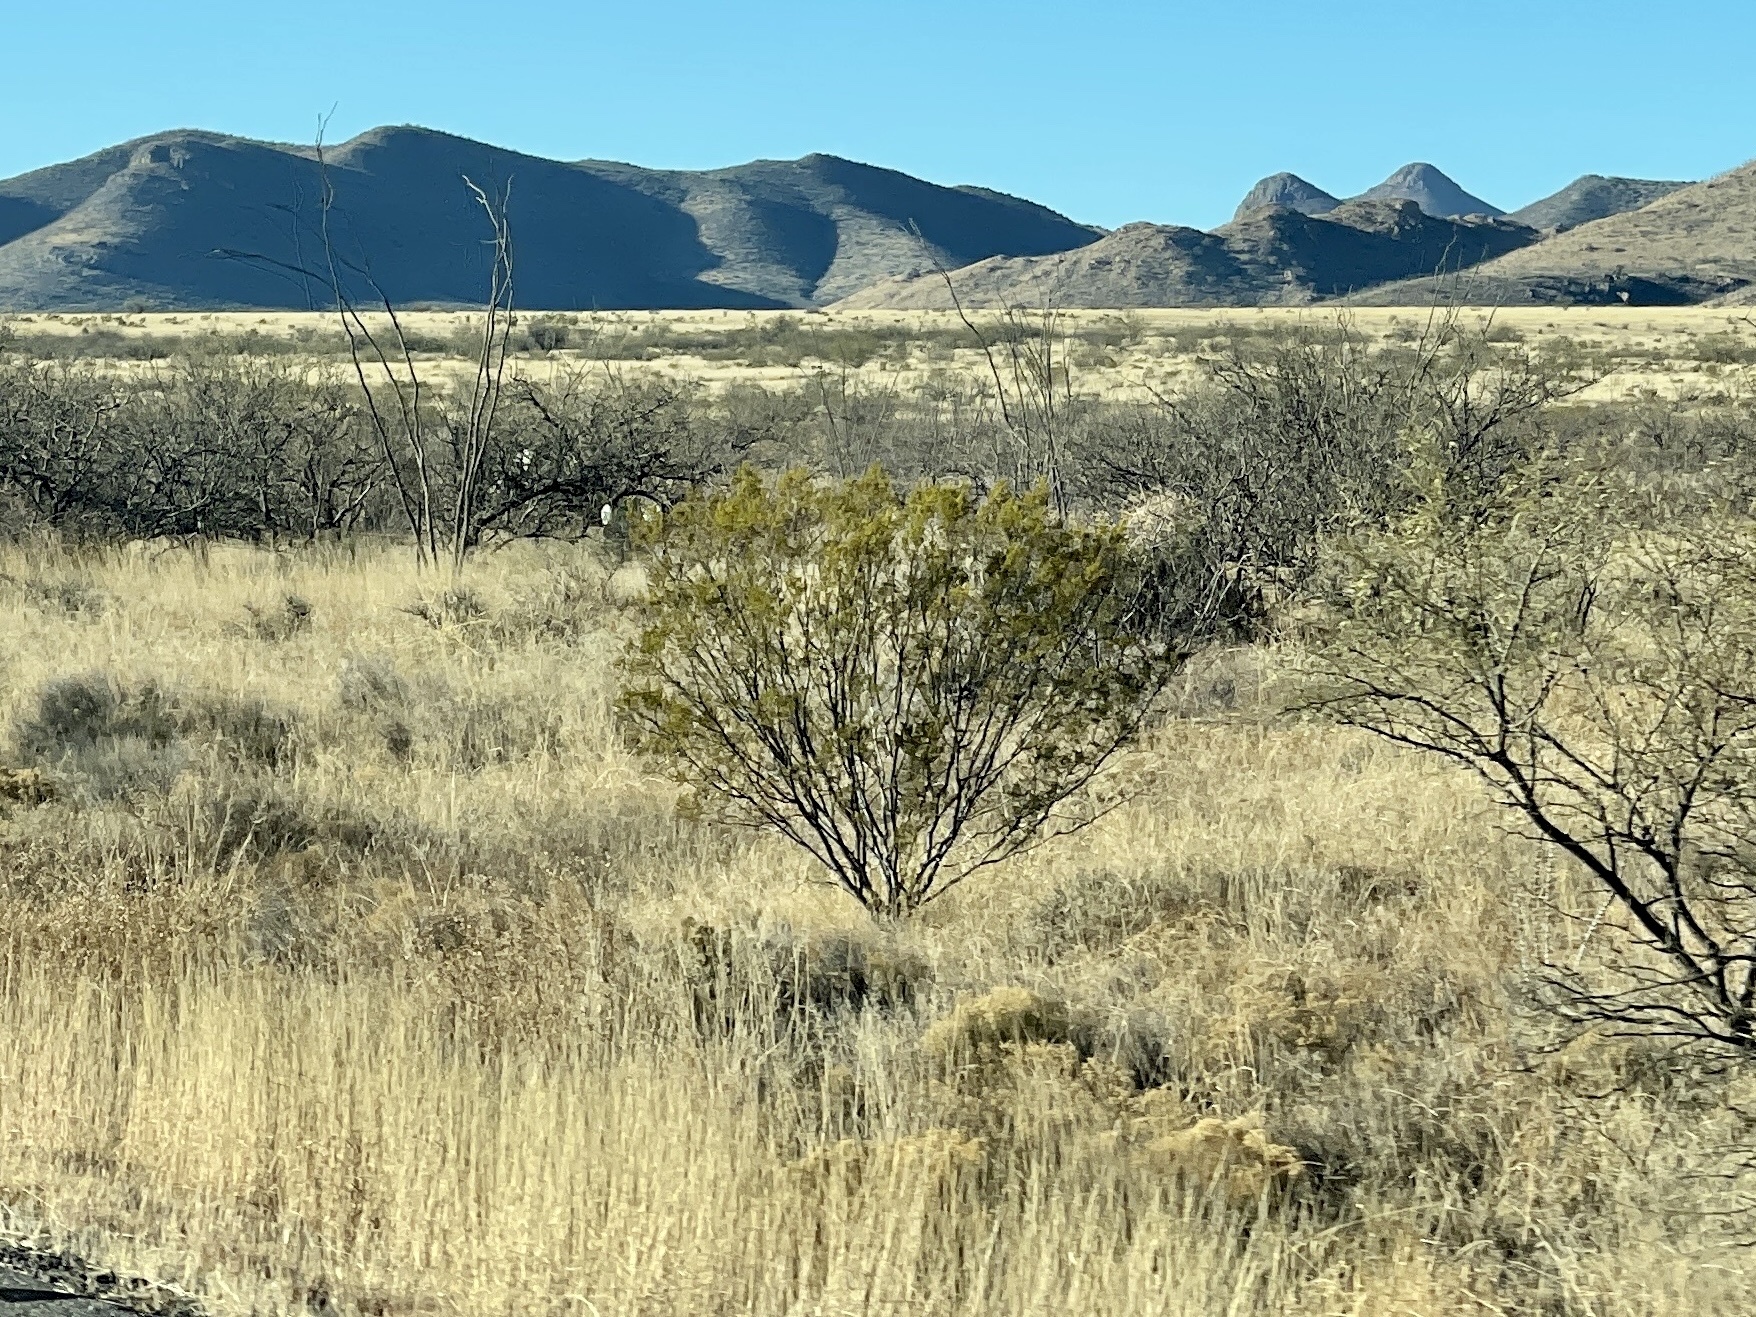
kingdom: Plantae
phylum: Tracheophyta
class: Magnoliopsida
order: Zygophyllales
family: Zygophyllaceae
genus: Larrea
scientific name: Larrea tridentata
